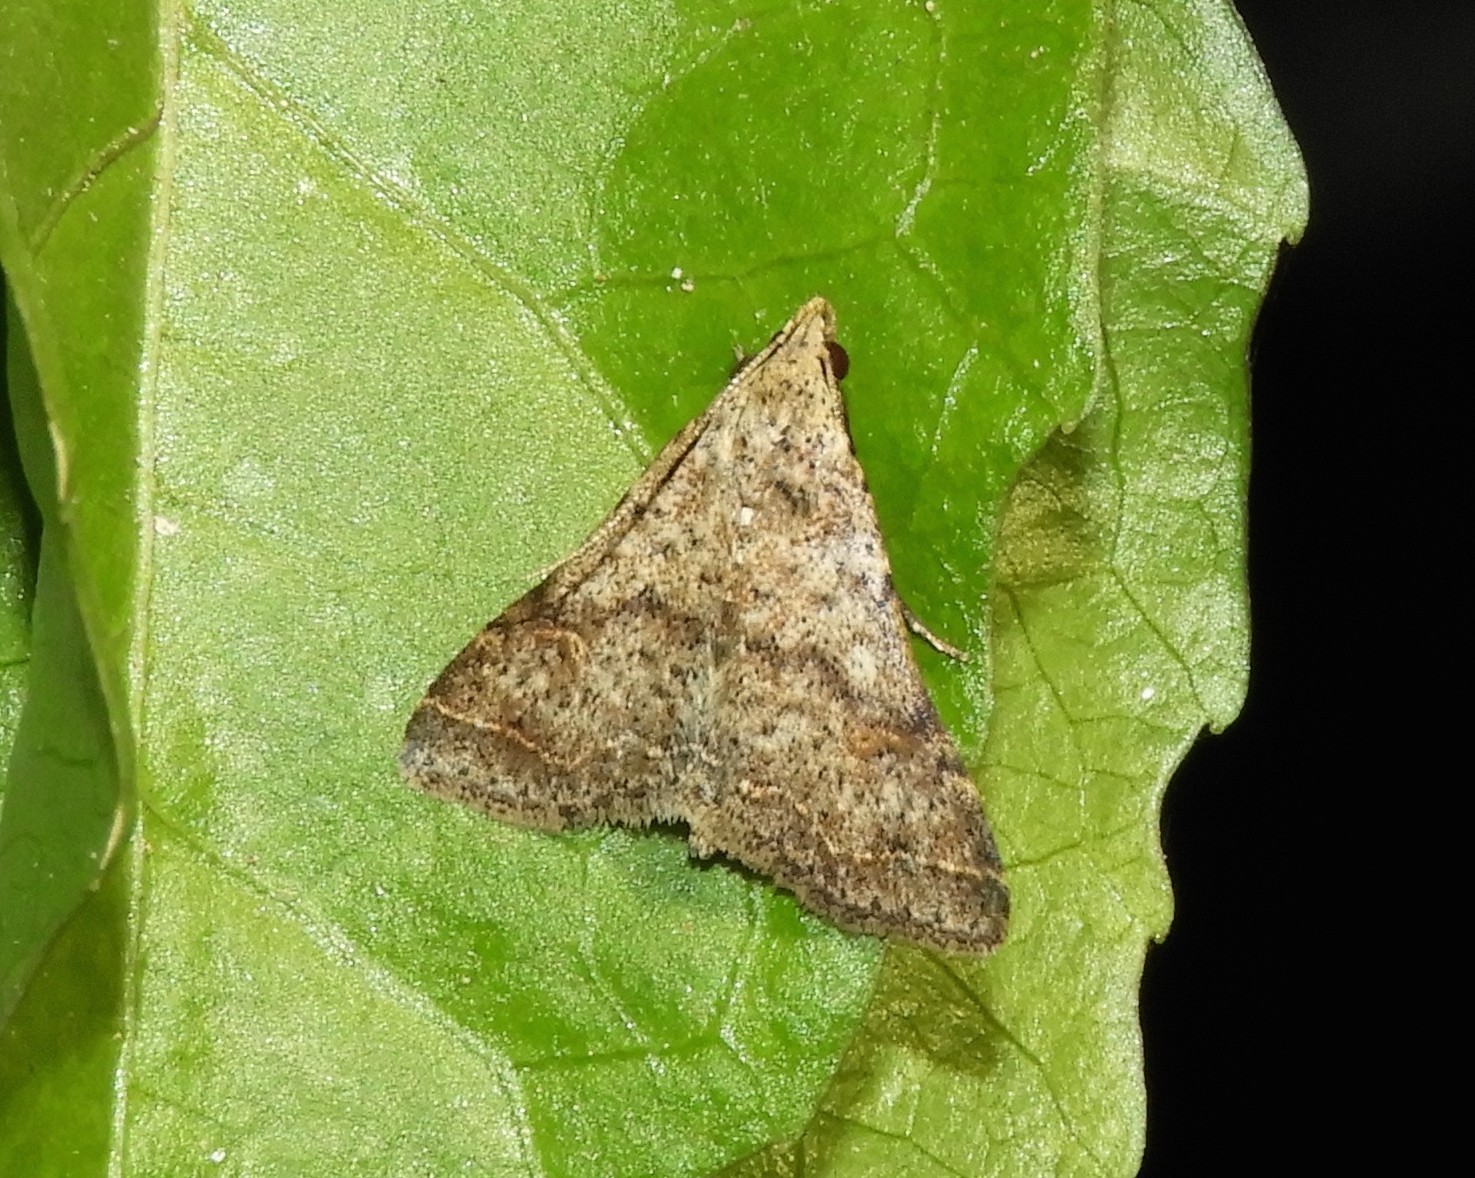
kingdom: Animalia
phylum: Arthropoda
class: Insecta
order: Lepidoptera
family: Erebidae
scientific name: Erebidae
